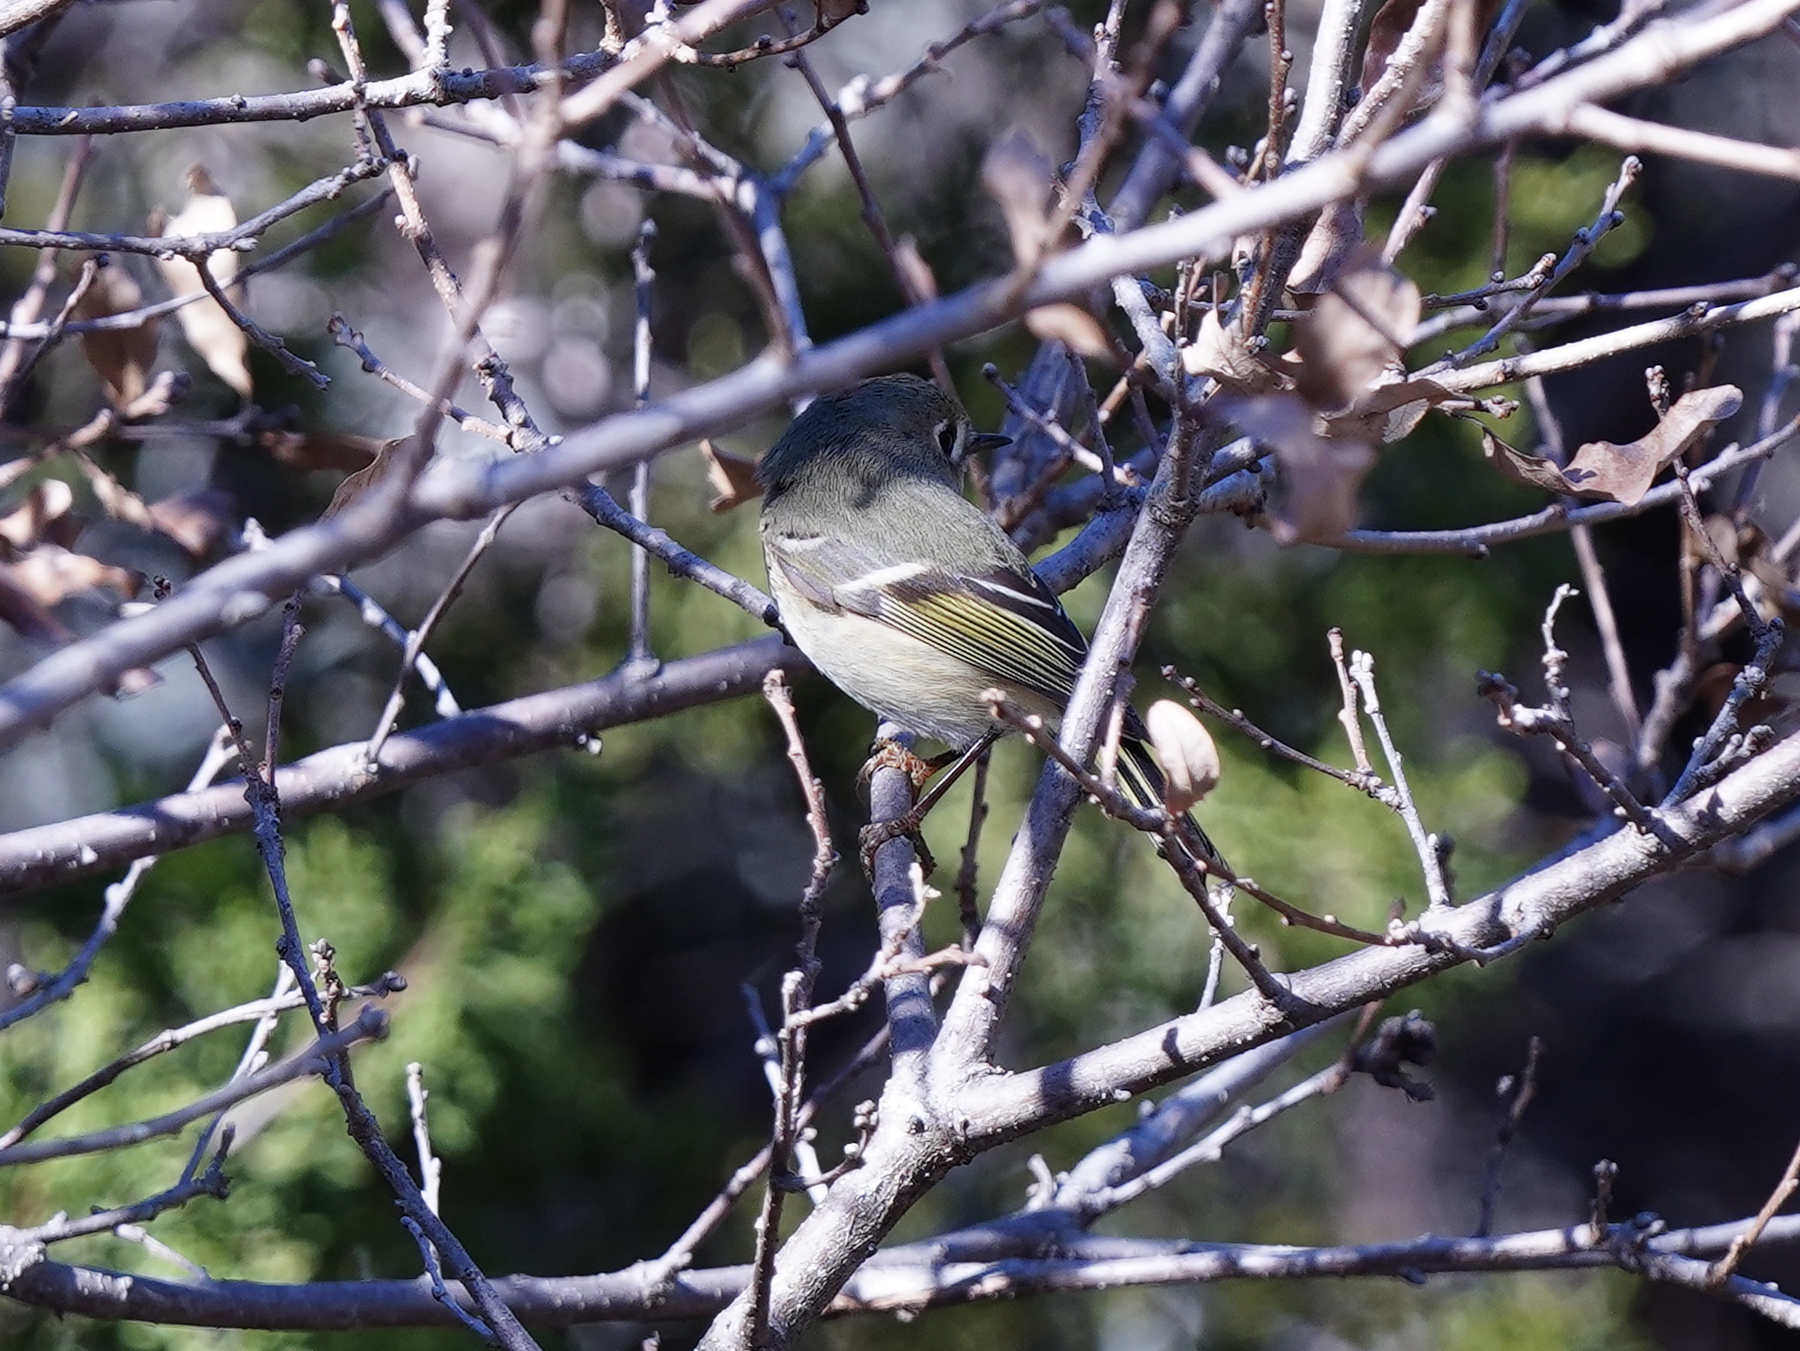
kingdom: Animalia
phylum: Chordata
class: Aves
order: Passeriformes
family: Regulidae
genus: Regulus
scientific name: Regulus calendula
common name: Ruby-crowned kinglet
